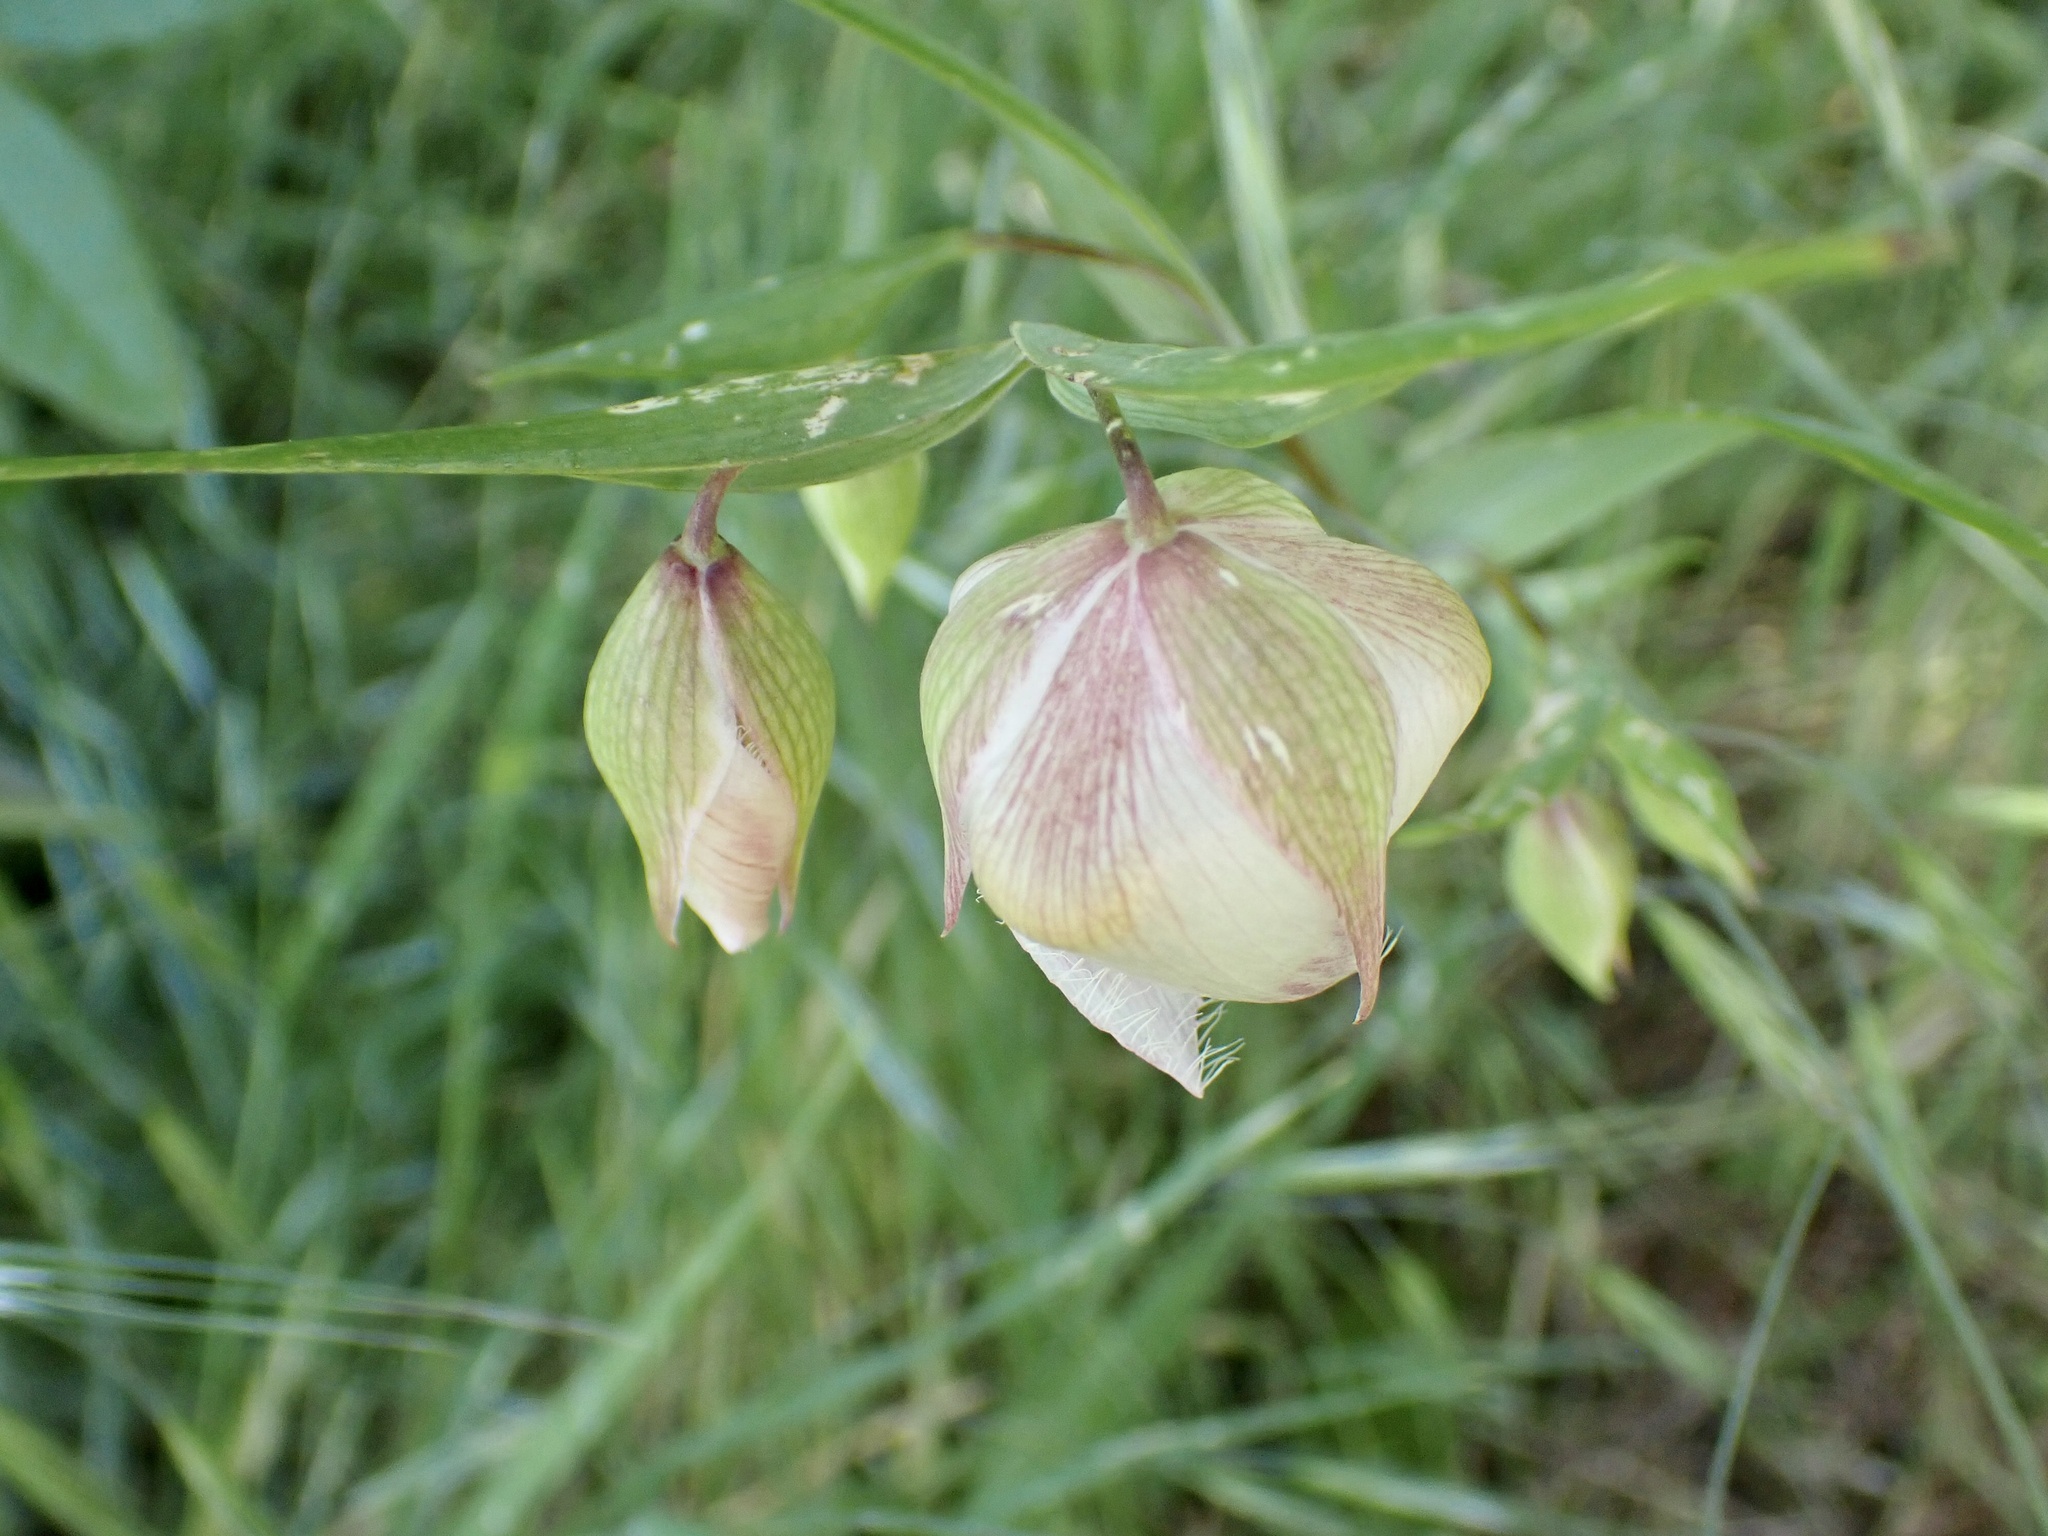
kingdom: Plantae
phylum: Tracheophyta
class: Liliopsida
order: Liliales
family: Liliaceae
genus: Calochortus
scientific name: Calochortus albus
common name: Fairy-lantern
